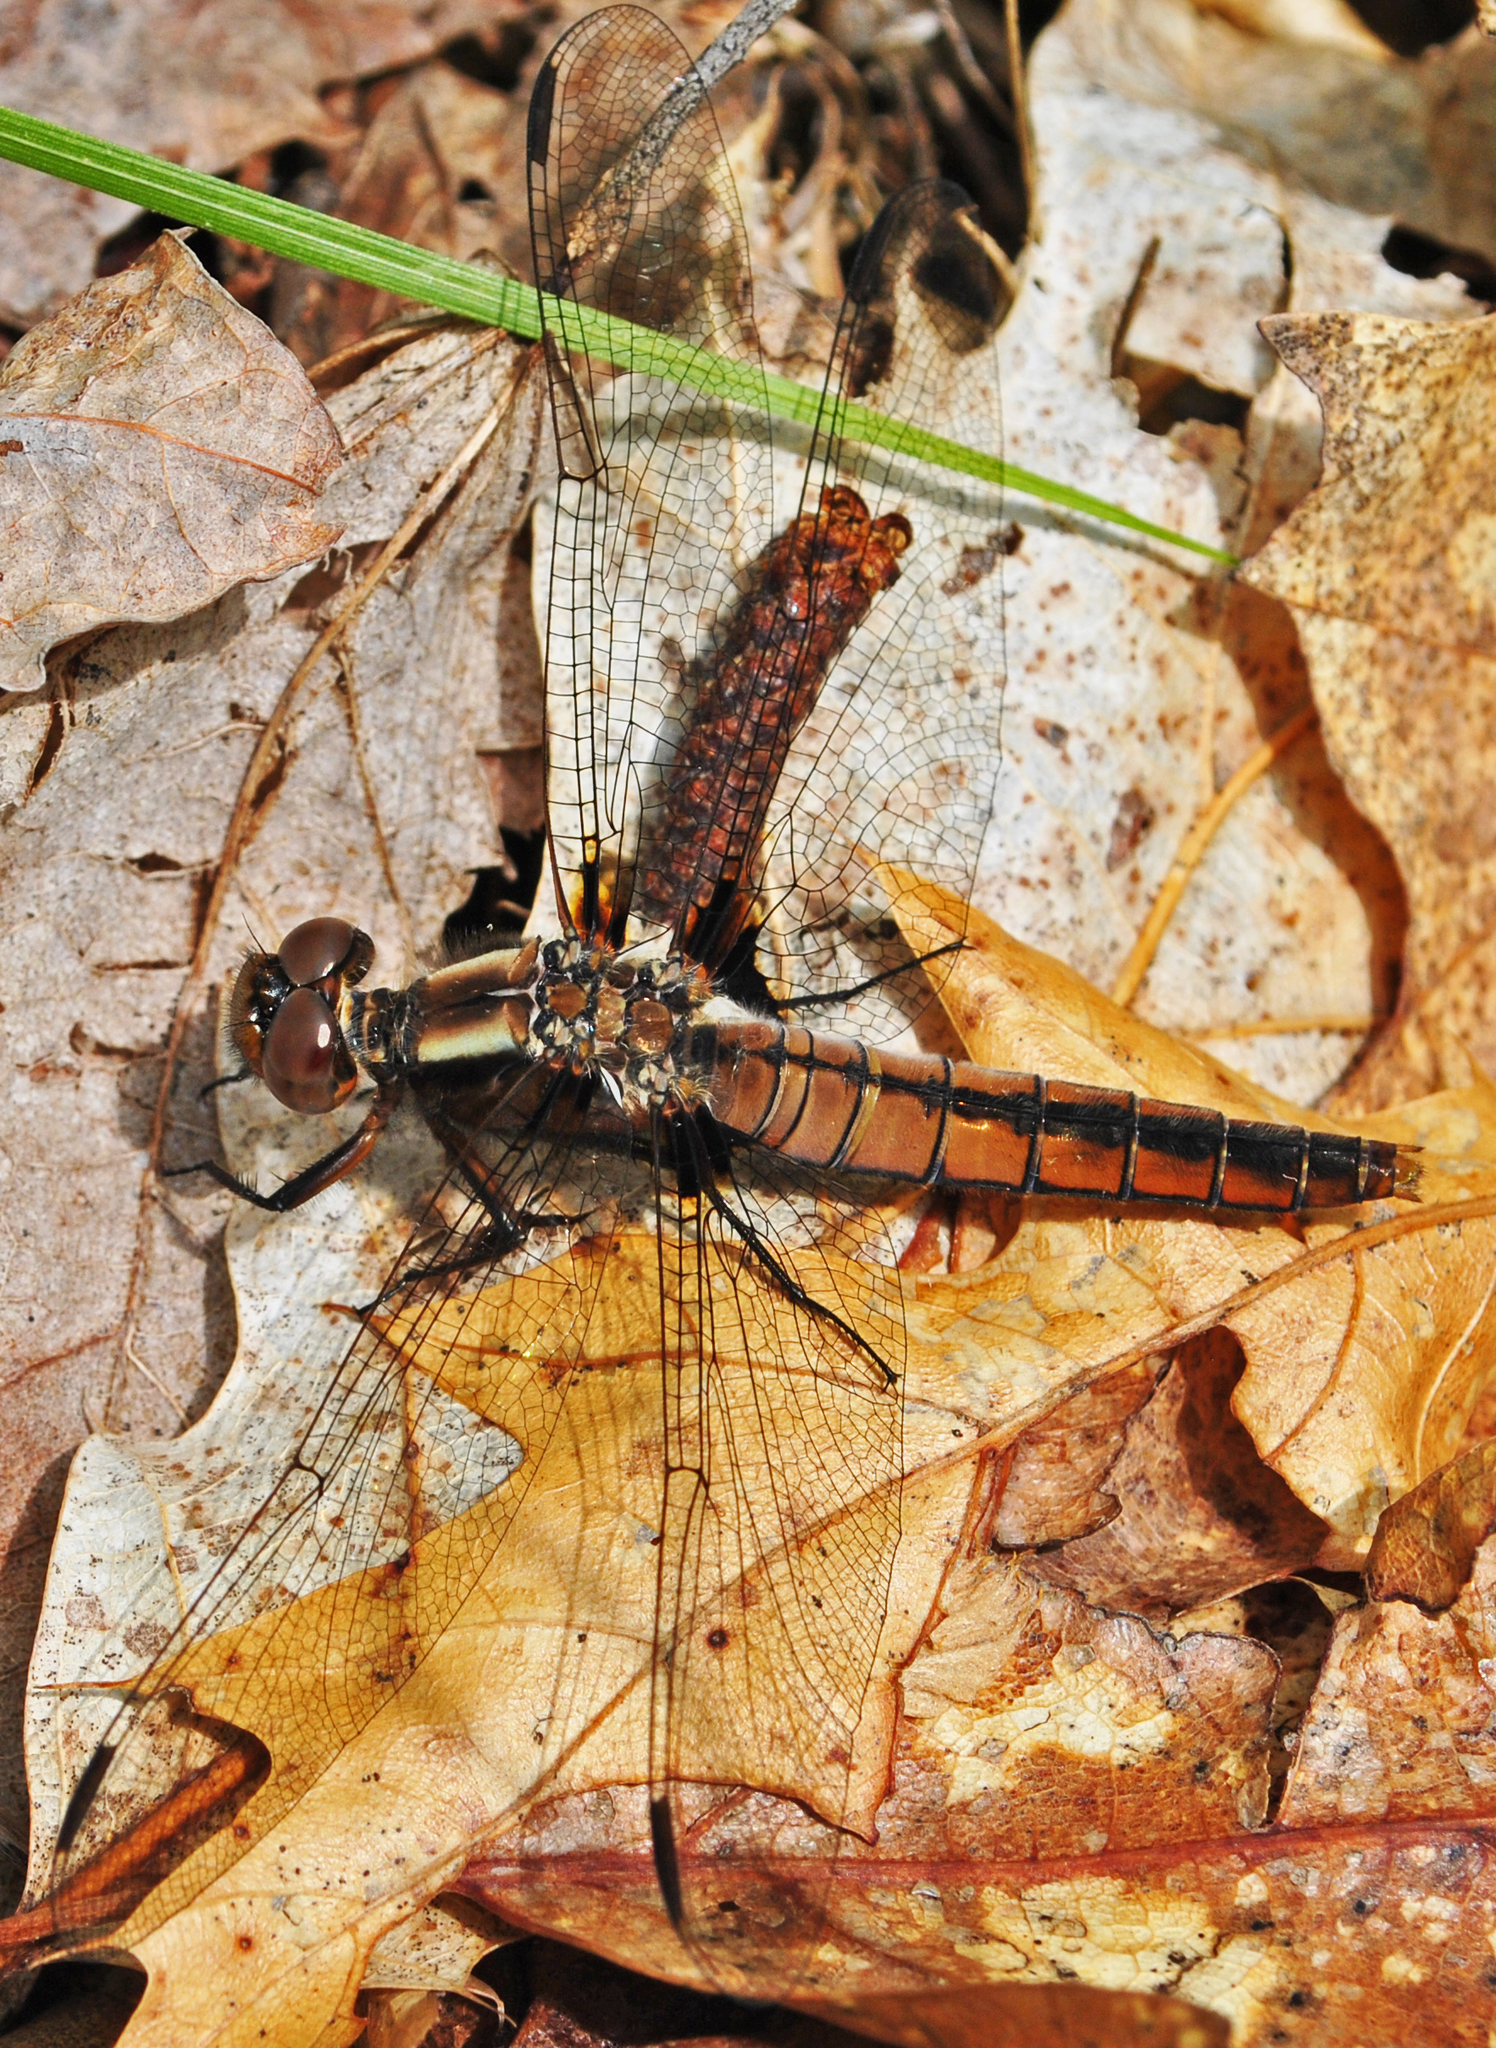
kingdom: Animalia
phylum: Arthropoda
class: Insecta
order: Odonata
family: Libellulidae
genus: Ladona
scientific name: Ladona julia
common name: Chalk-fronted corporal
